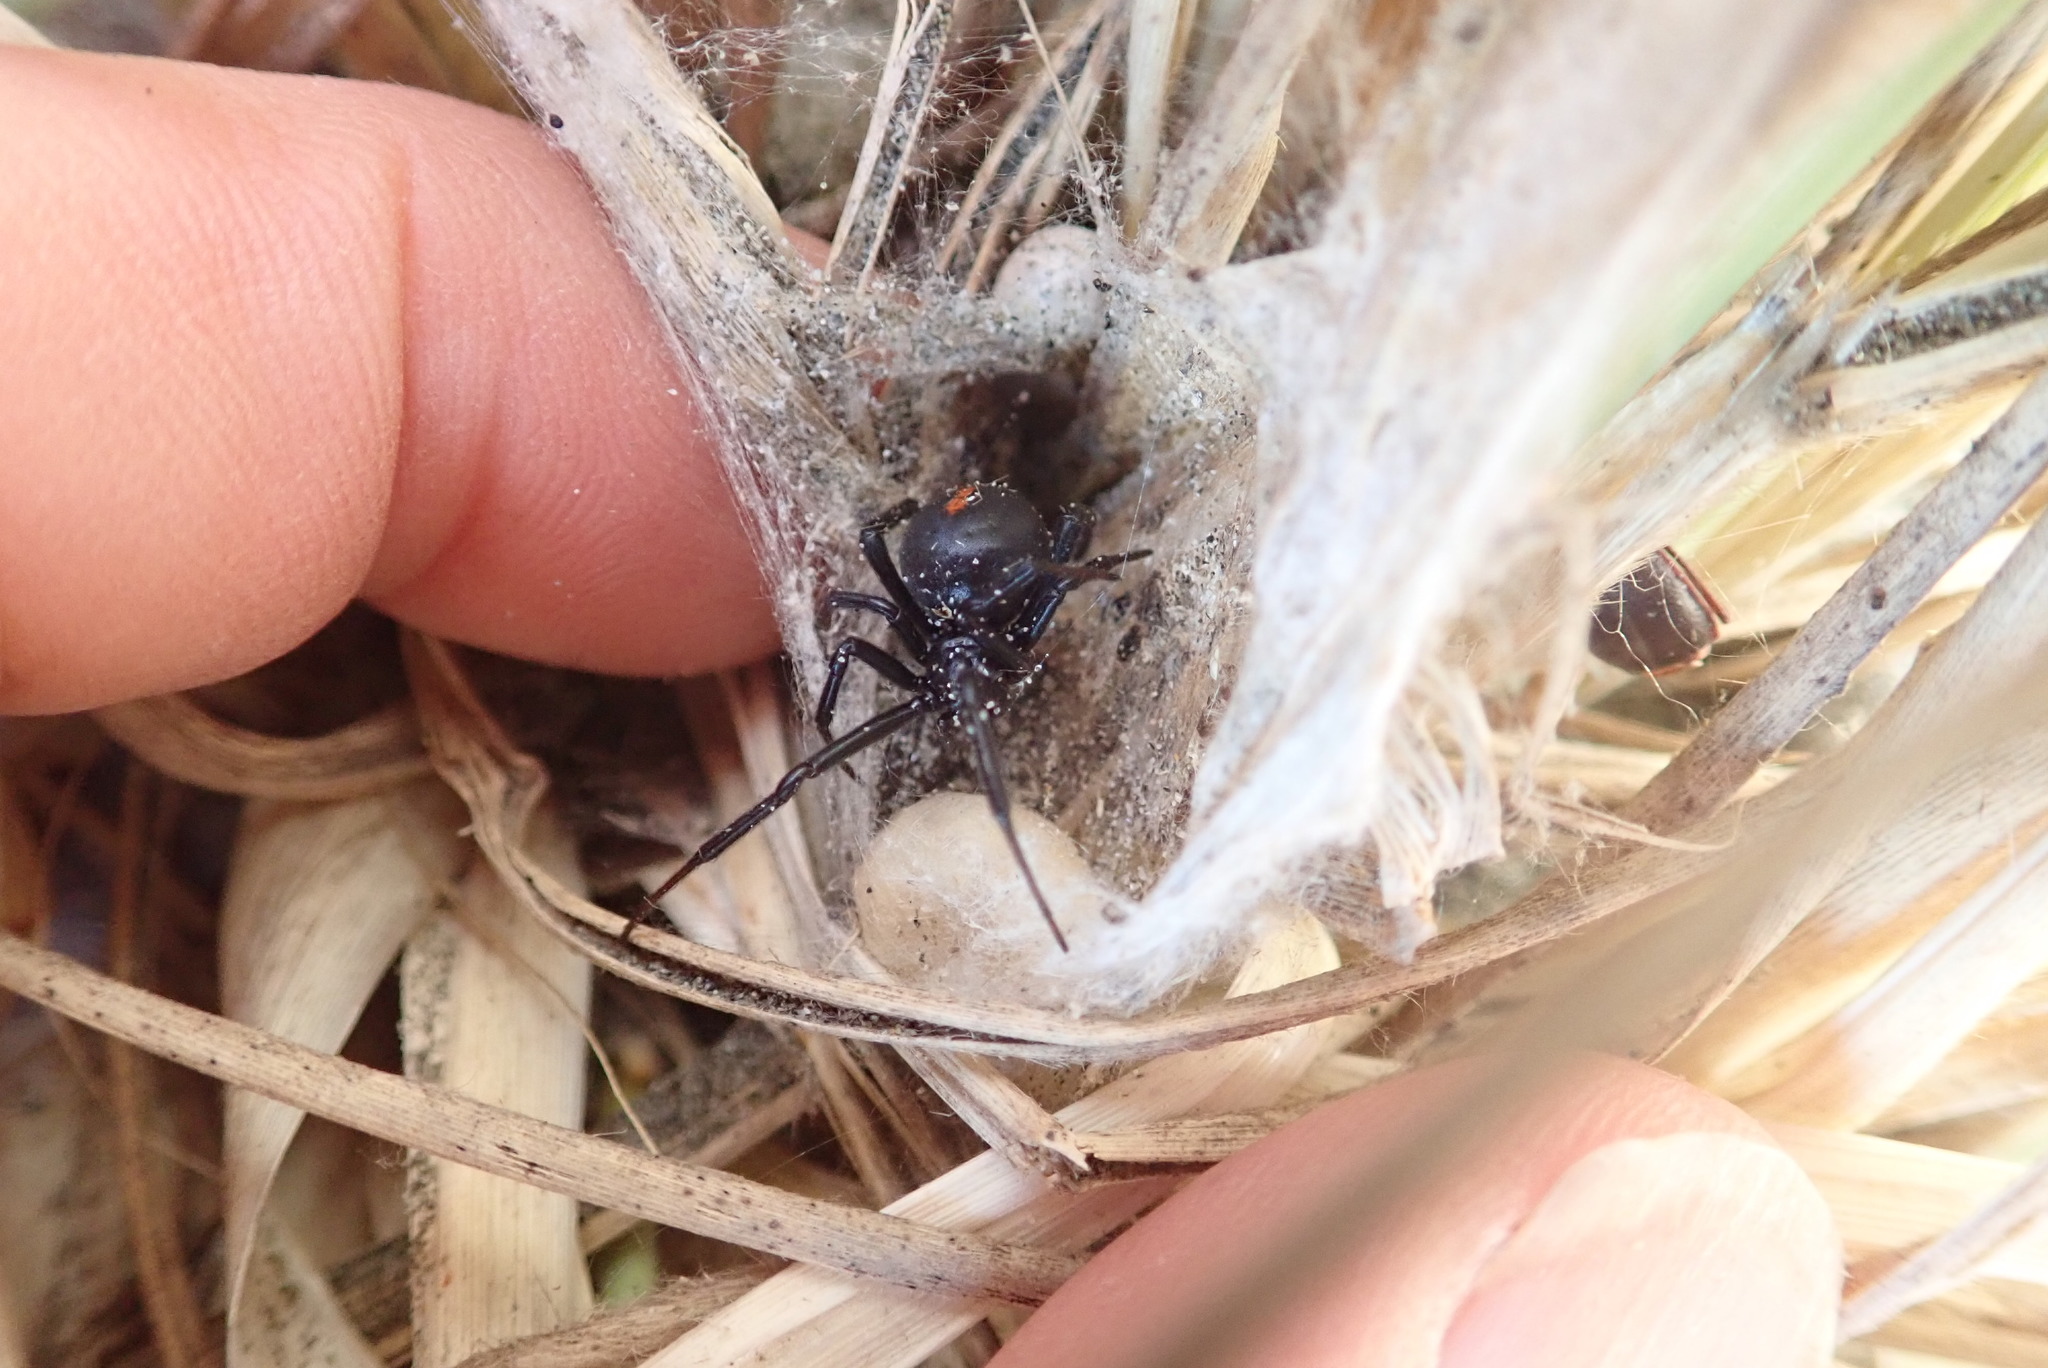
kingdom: Animalia
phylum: Arthropoda
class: Arachnida
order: Araneae
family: Theridiidae
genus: Latrodectus
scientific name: Latrodectus katipo
